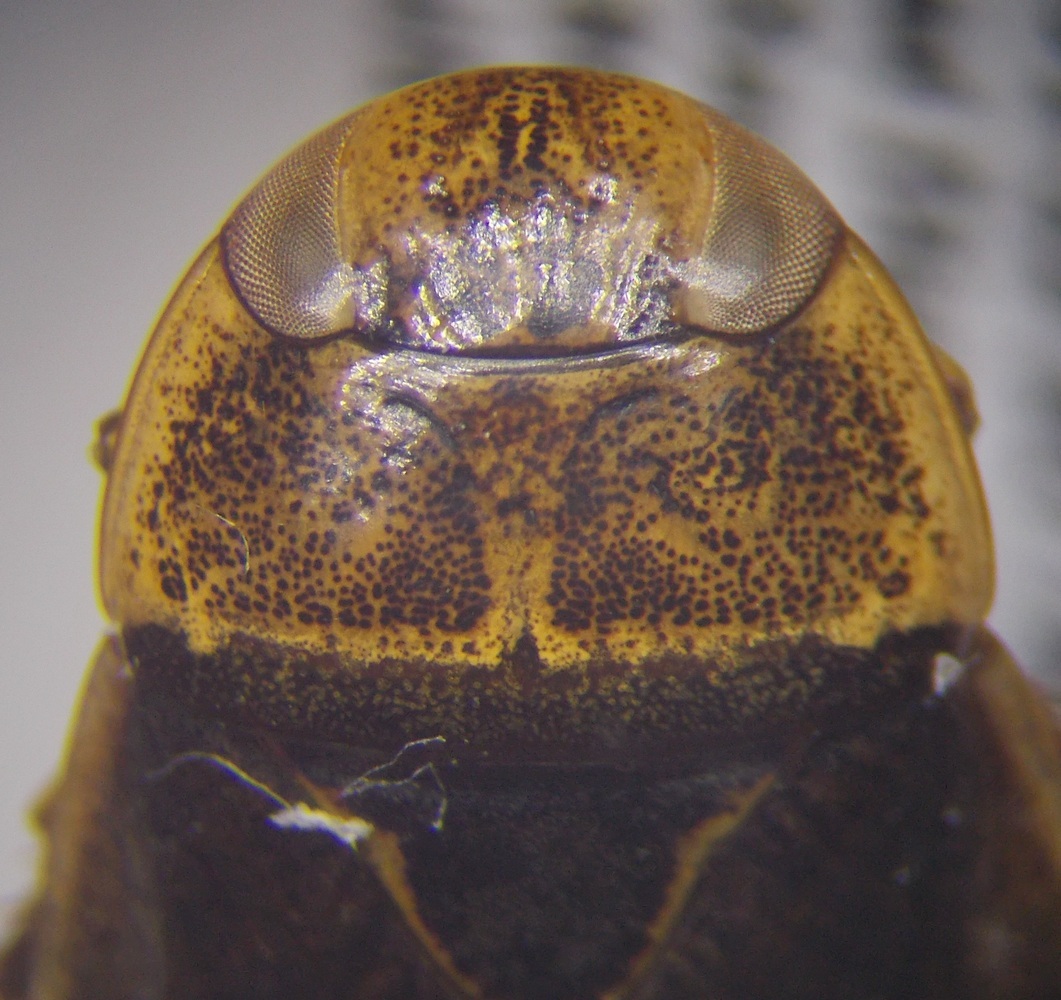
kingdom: Animalia
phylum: Arthropoda
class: Insecta
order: Hemiptera
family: Naucoridae
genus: Ilyocoris
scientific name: Ilyocoris cimicoides
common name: Saucer bugs
